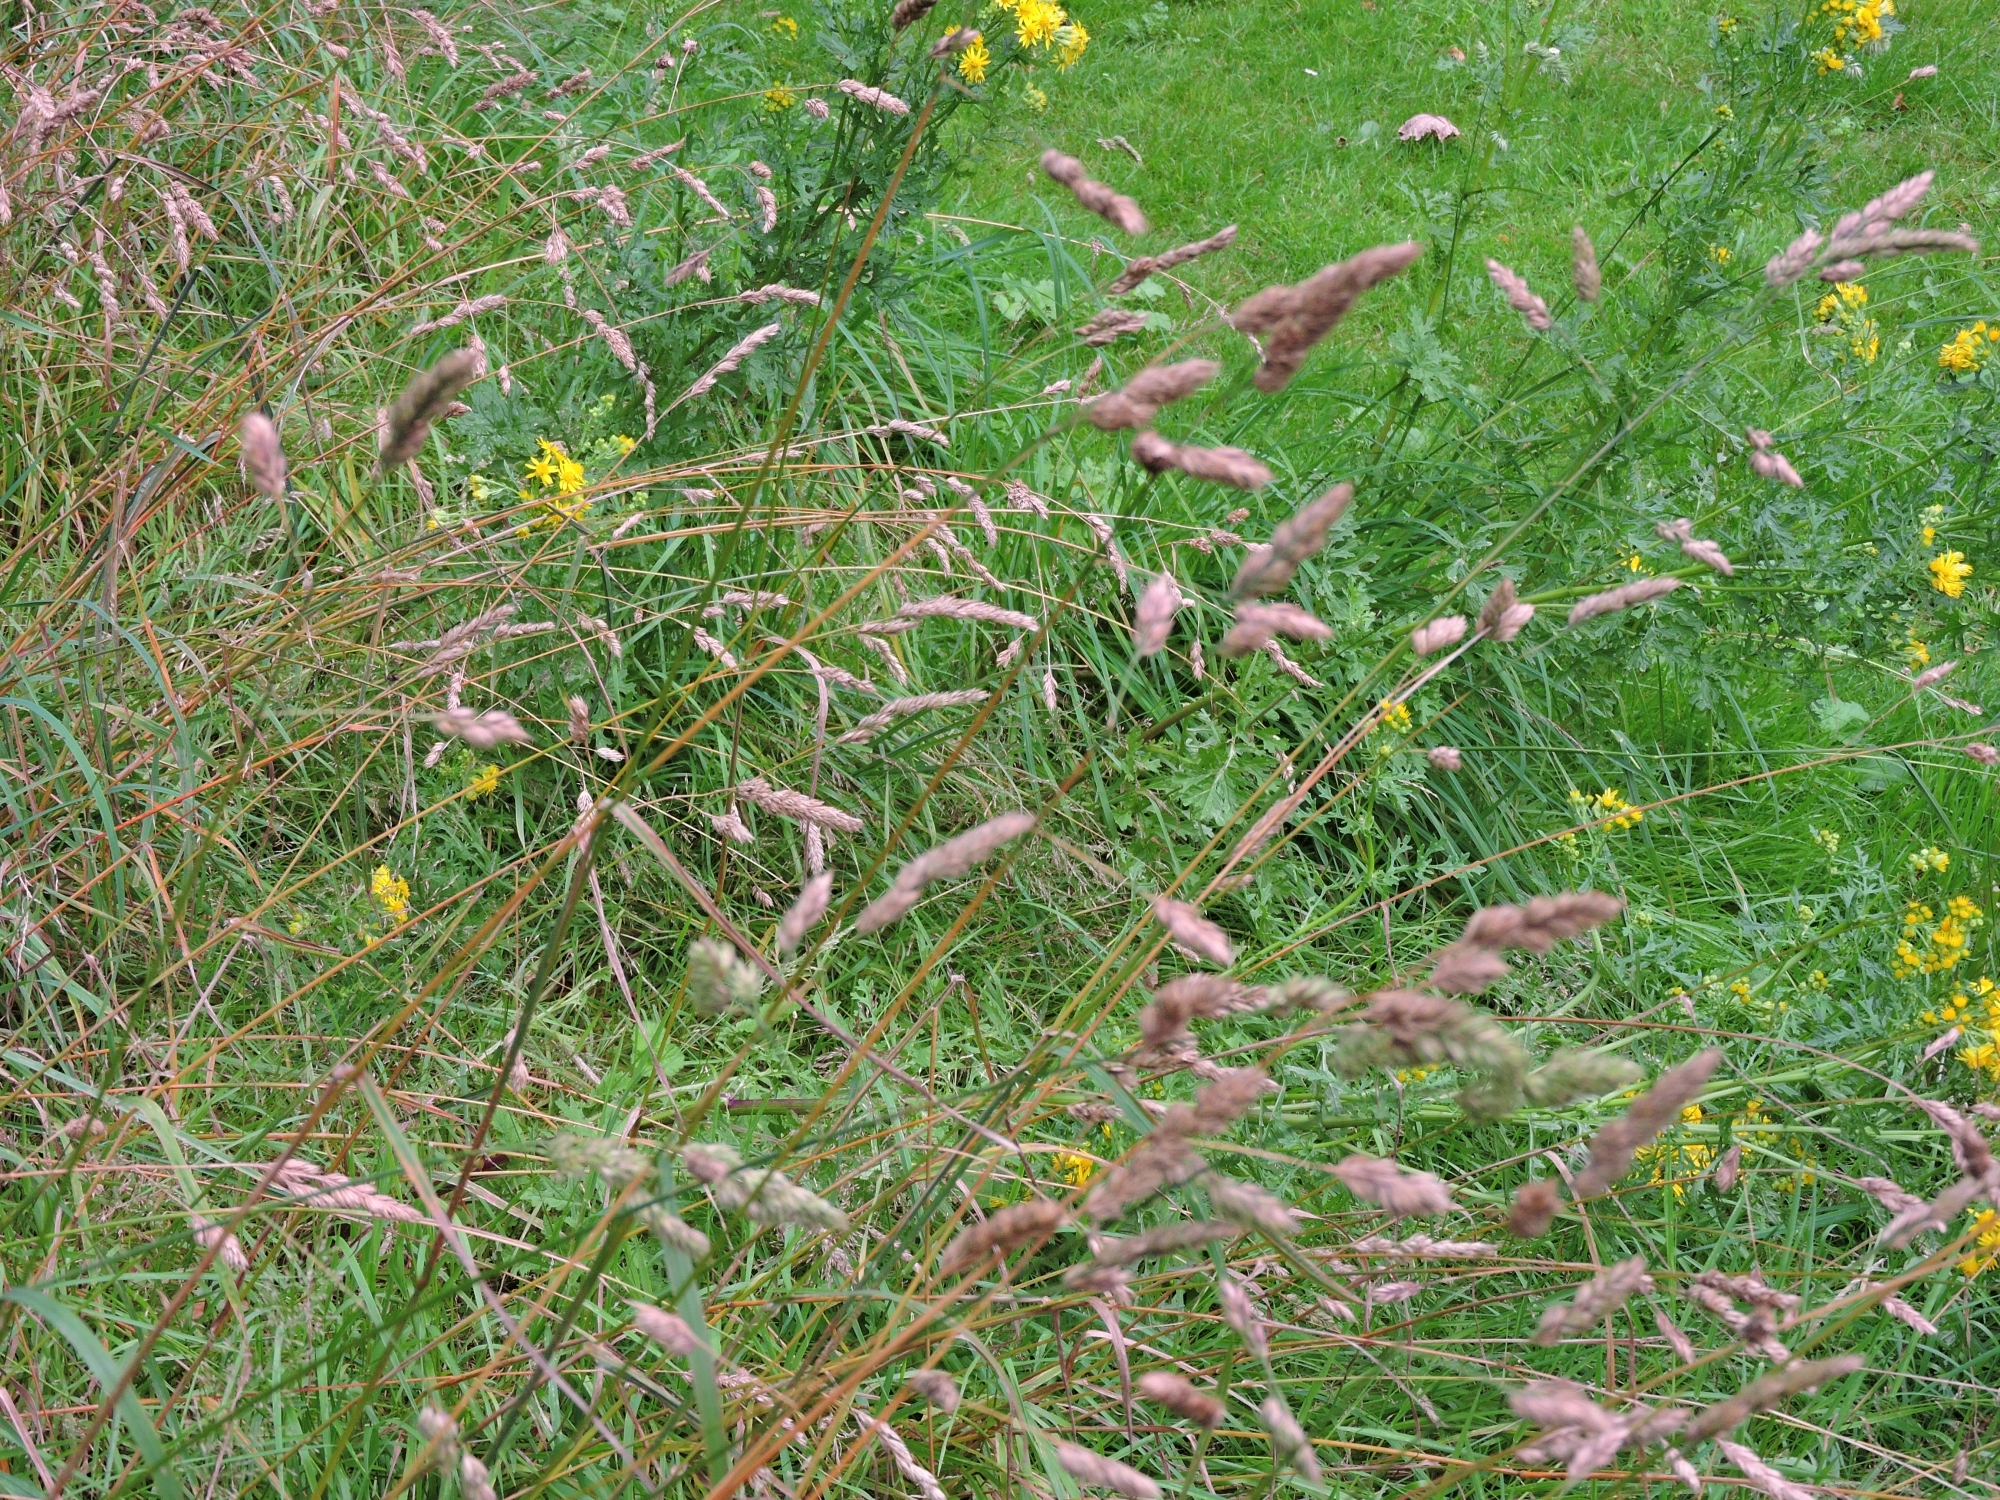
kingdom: Plantae
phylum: Tracheophyta
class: Liliopsida
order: Poales
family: Poaceae
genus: Dactylis
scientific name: Dactylis glomerata
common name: Orchardgrass
